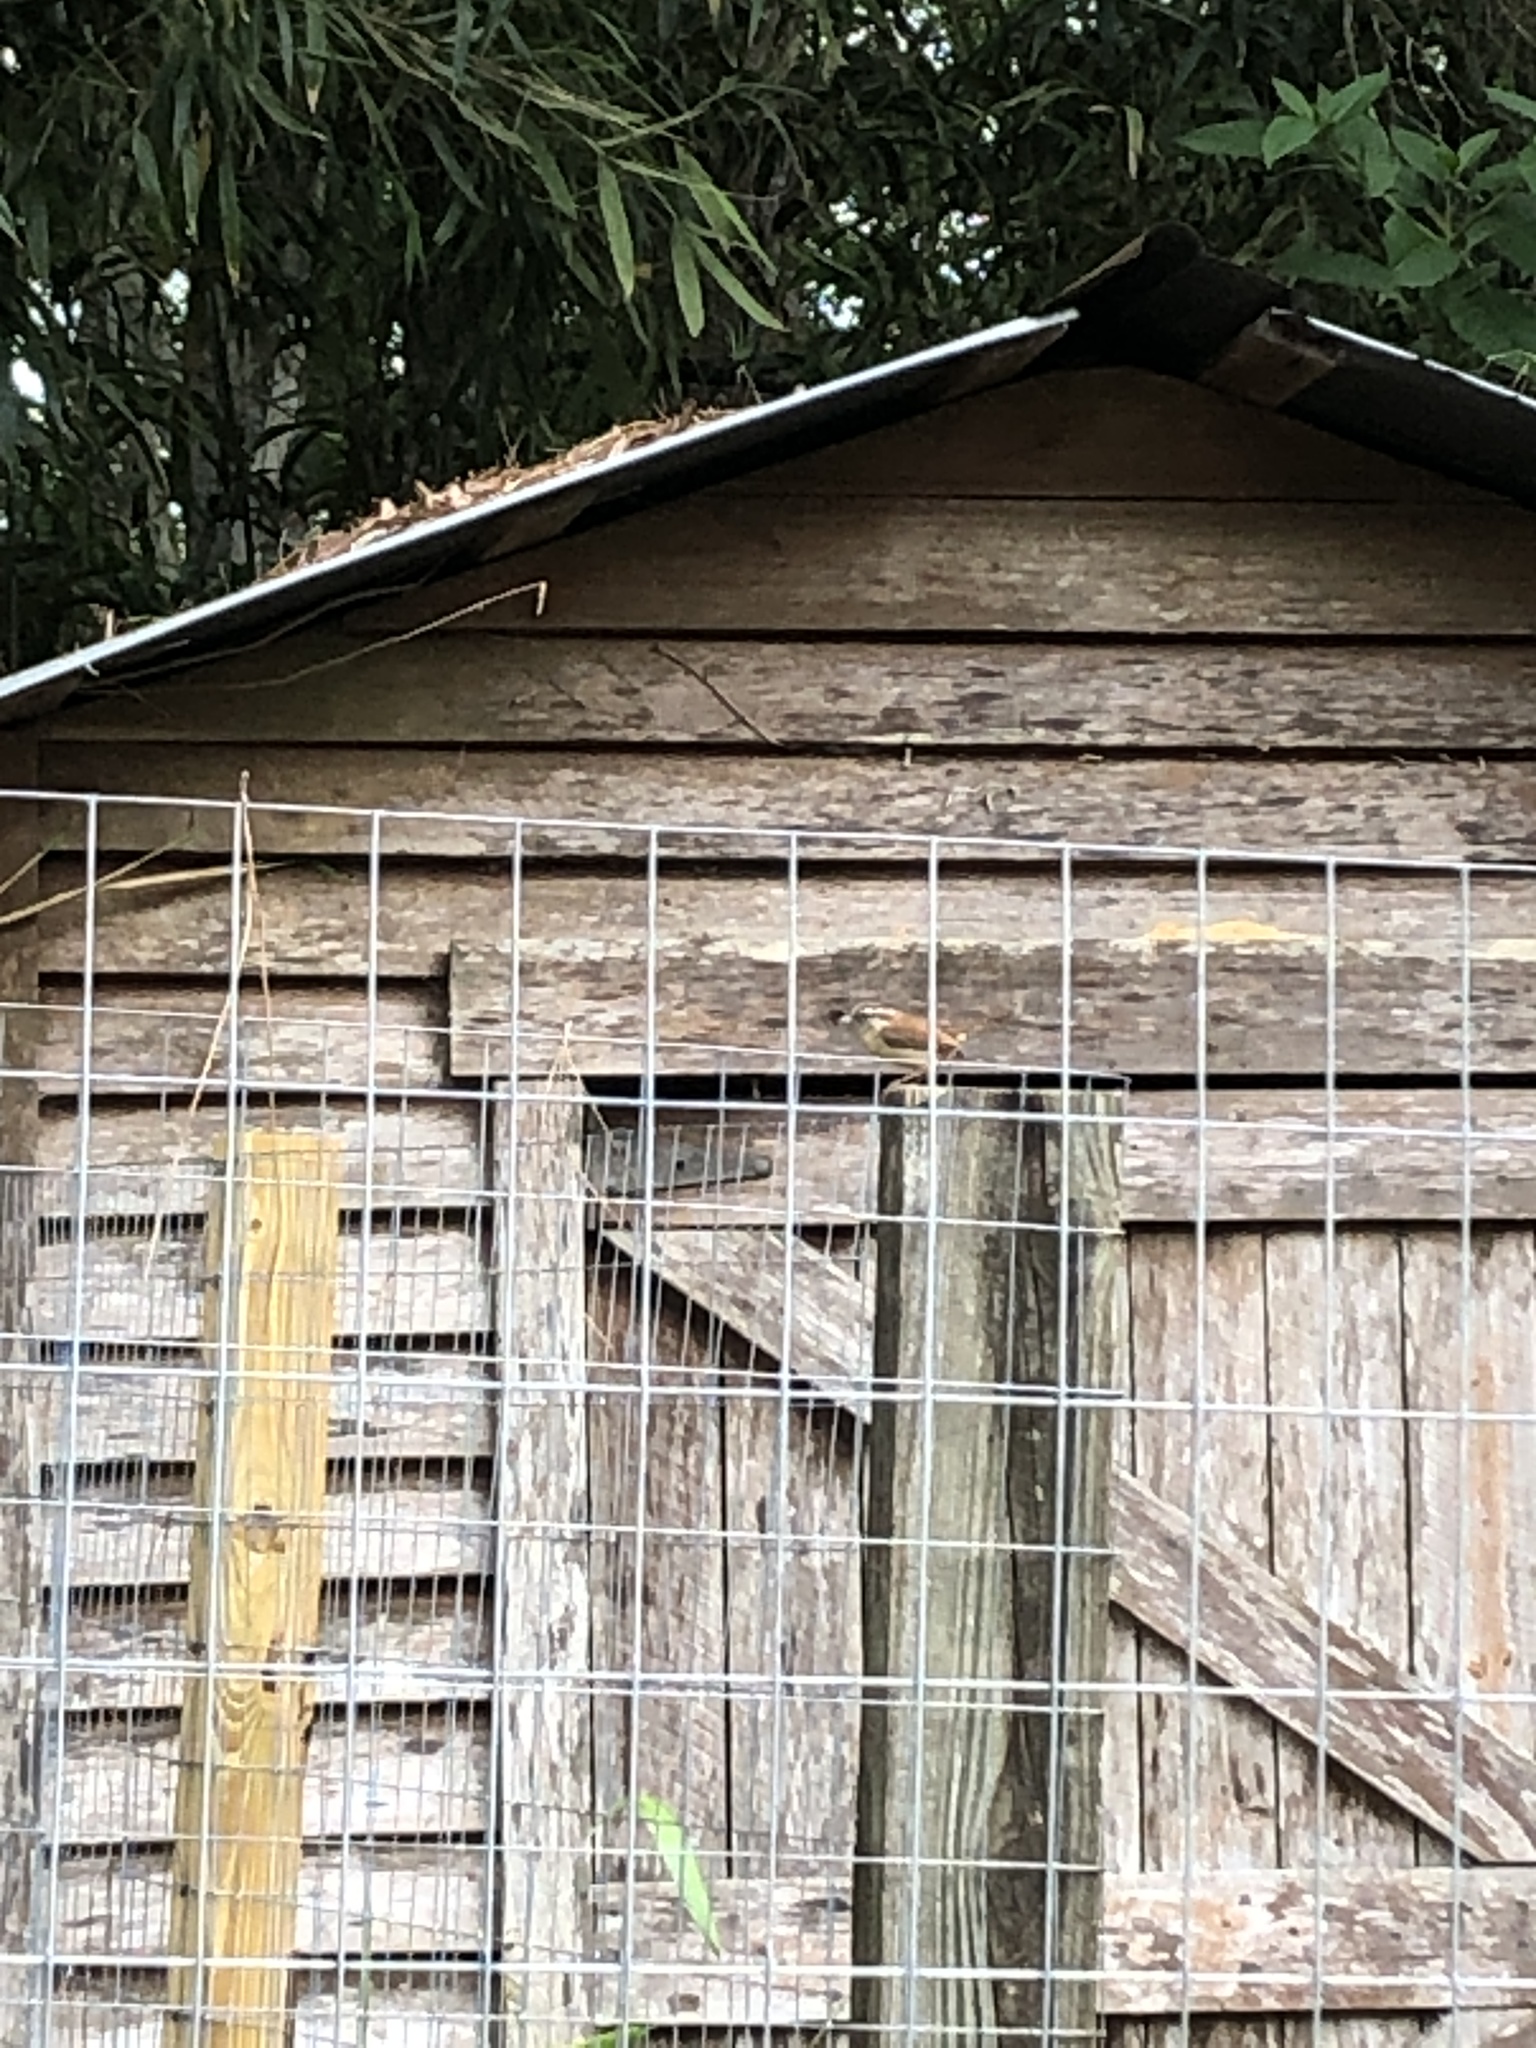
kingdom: Animalia
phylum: Chordata
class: Aves
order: Passeriformes
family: Troglodytidae
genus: Thryothorus
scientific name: Thryothorus ludovicianus
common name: Carolina wren
